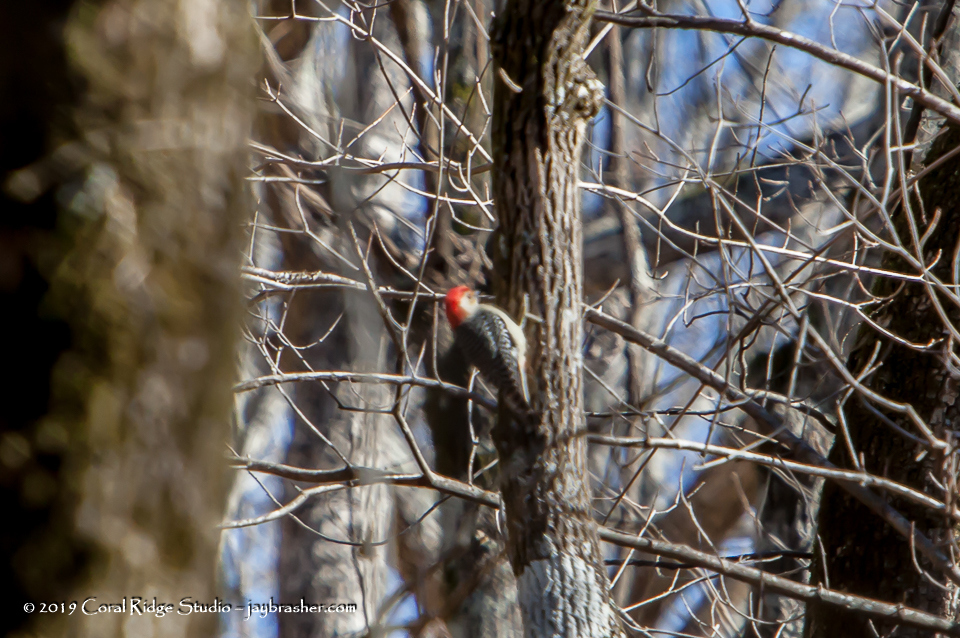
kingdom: Animalia
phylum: Chordata
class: Aves
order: Piciformes
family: Picidae
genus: Melanerpes
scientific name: Melanerpes carolinus
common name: Red-bellied woodpecker
